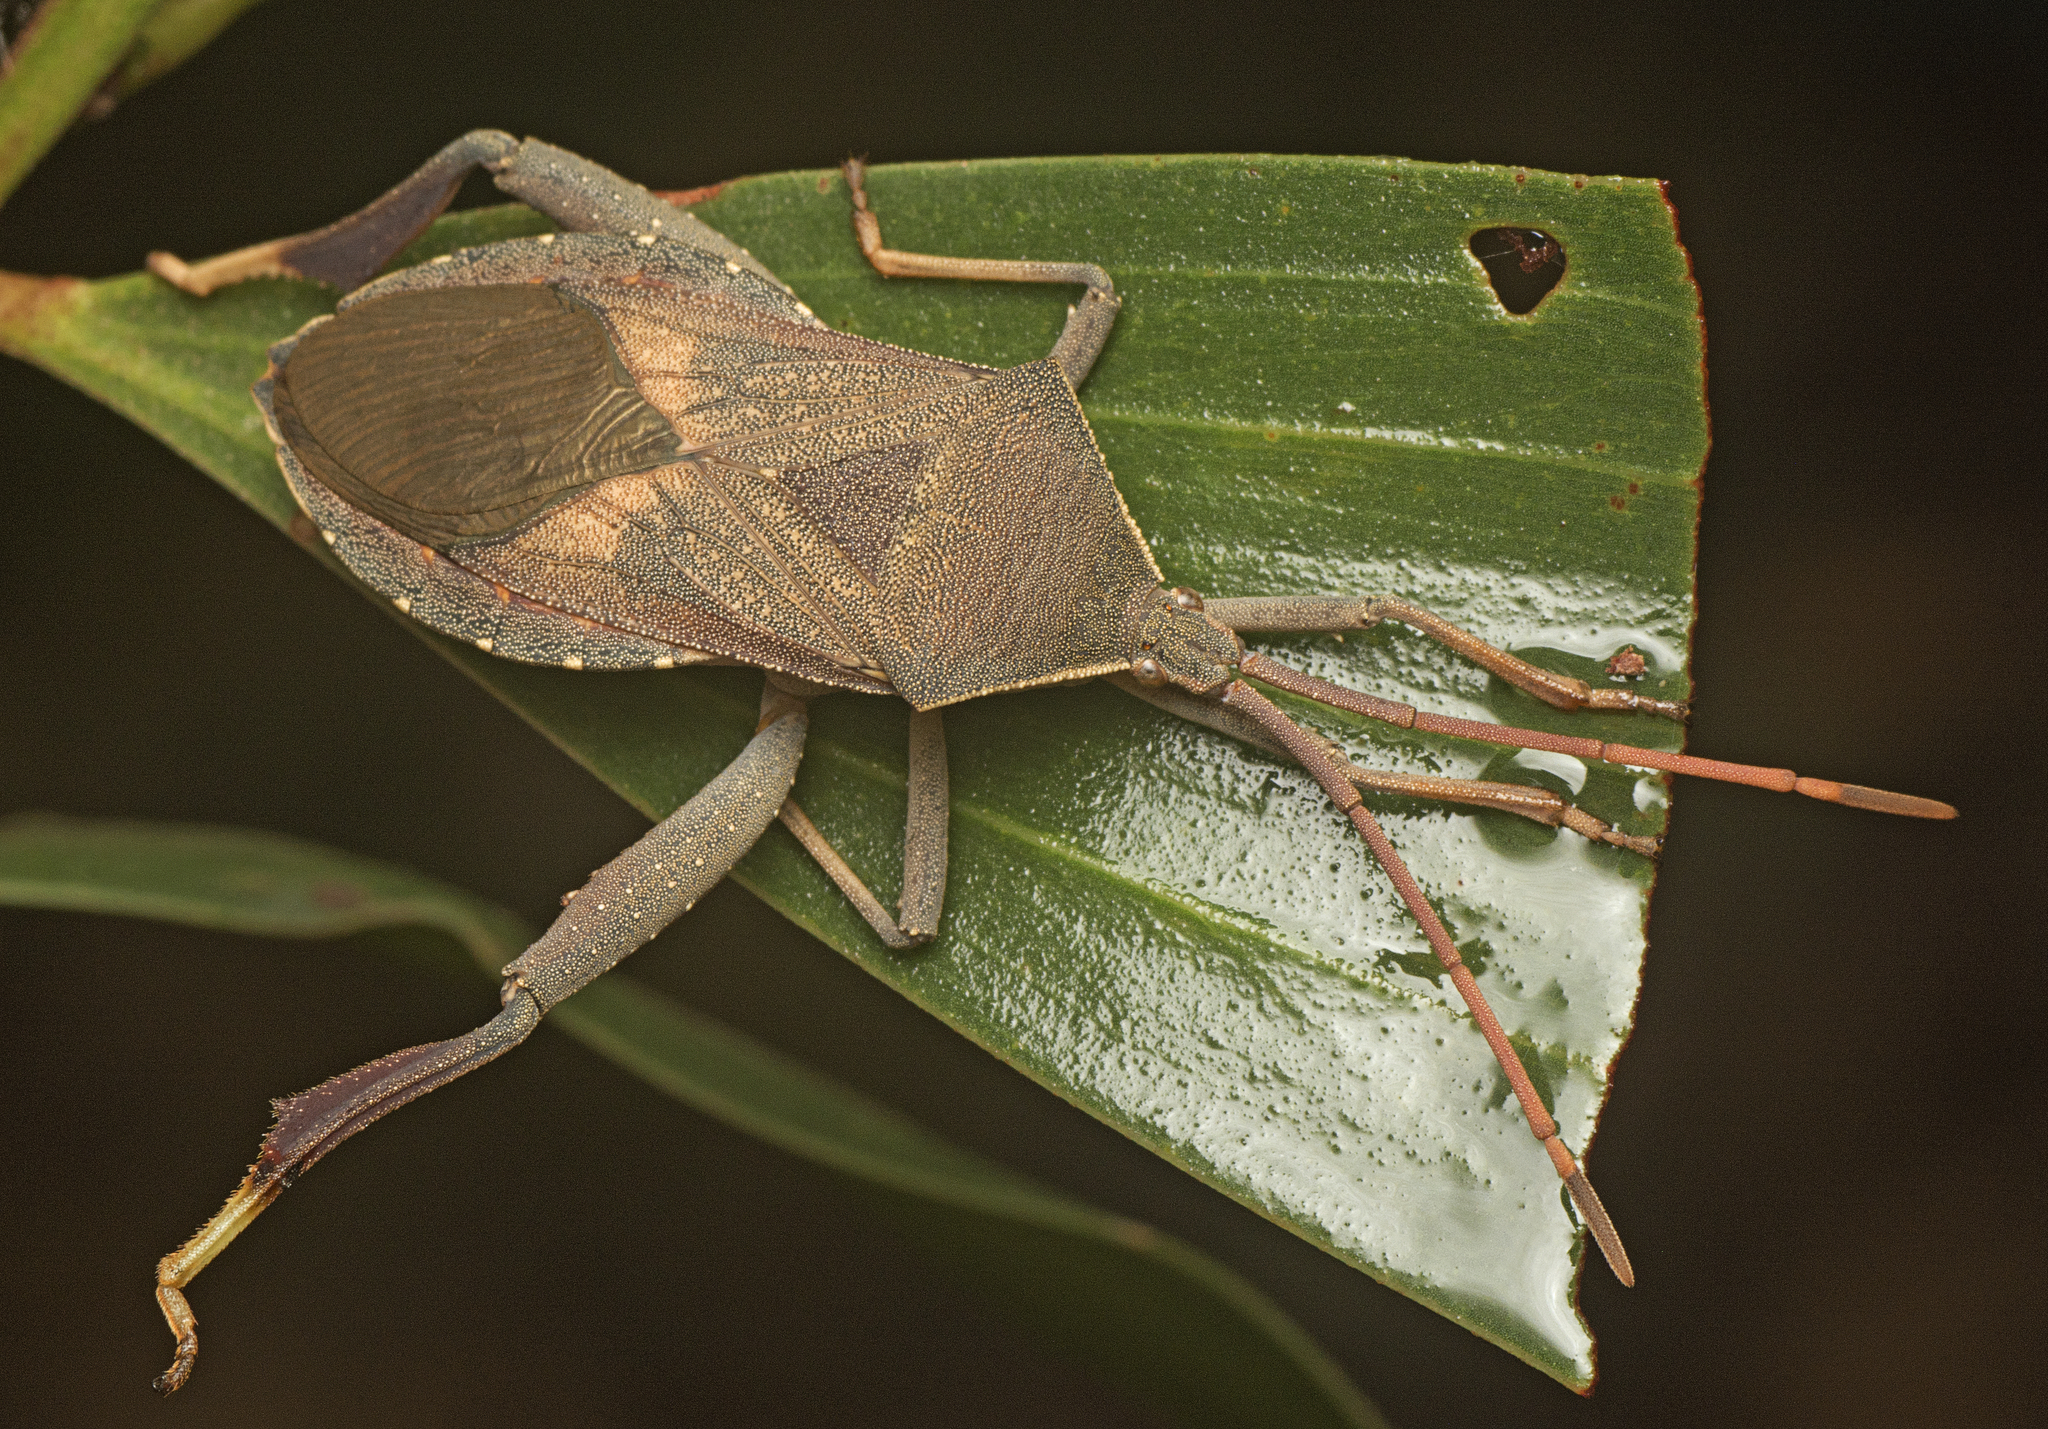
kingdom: Animalia
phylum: Arthropoda
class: Insecta
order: Hemiptera
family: Coreidae
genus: Amorbus
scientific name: Amorbus robustus
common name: Common gum-tree bug
